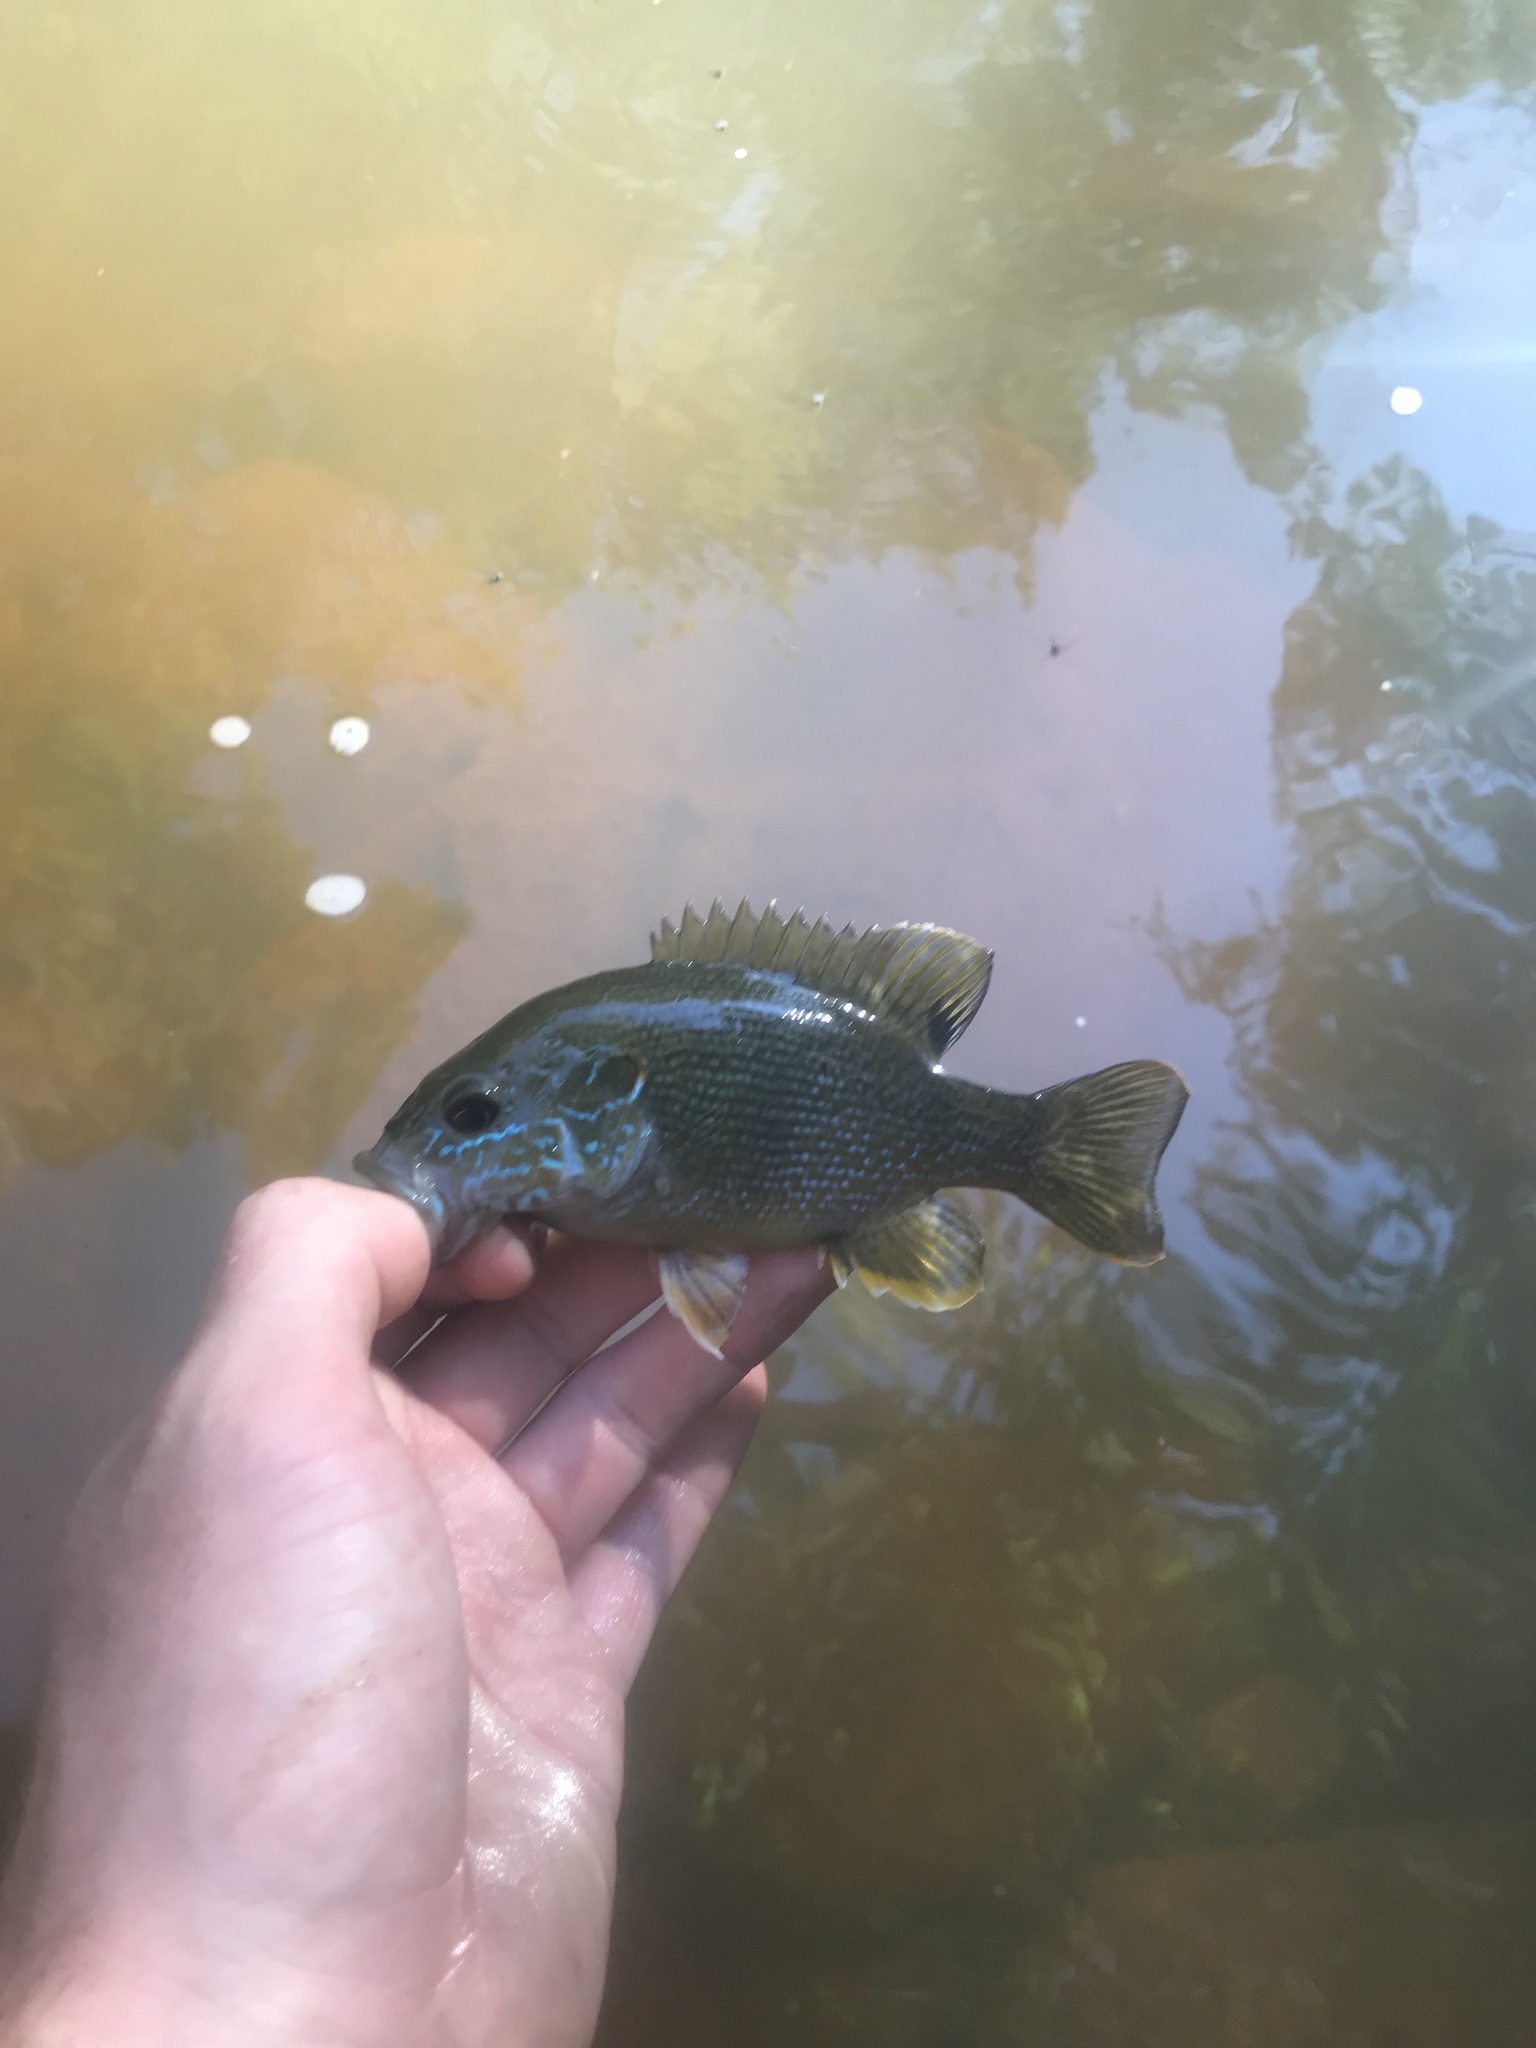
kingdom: Animalia
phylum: Chordata
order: Perciformes
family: Centrarchidae
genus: Lepomis
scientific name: Lepomis cyanellus
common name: Green sunfish
